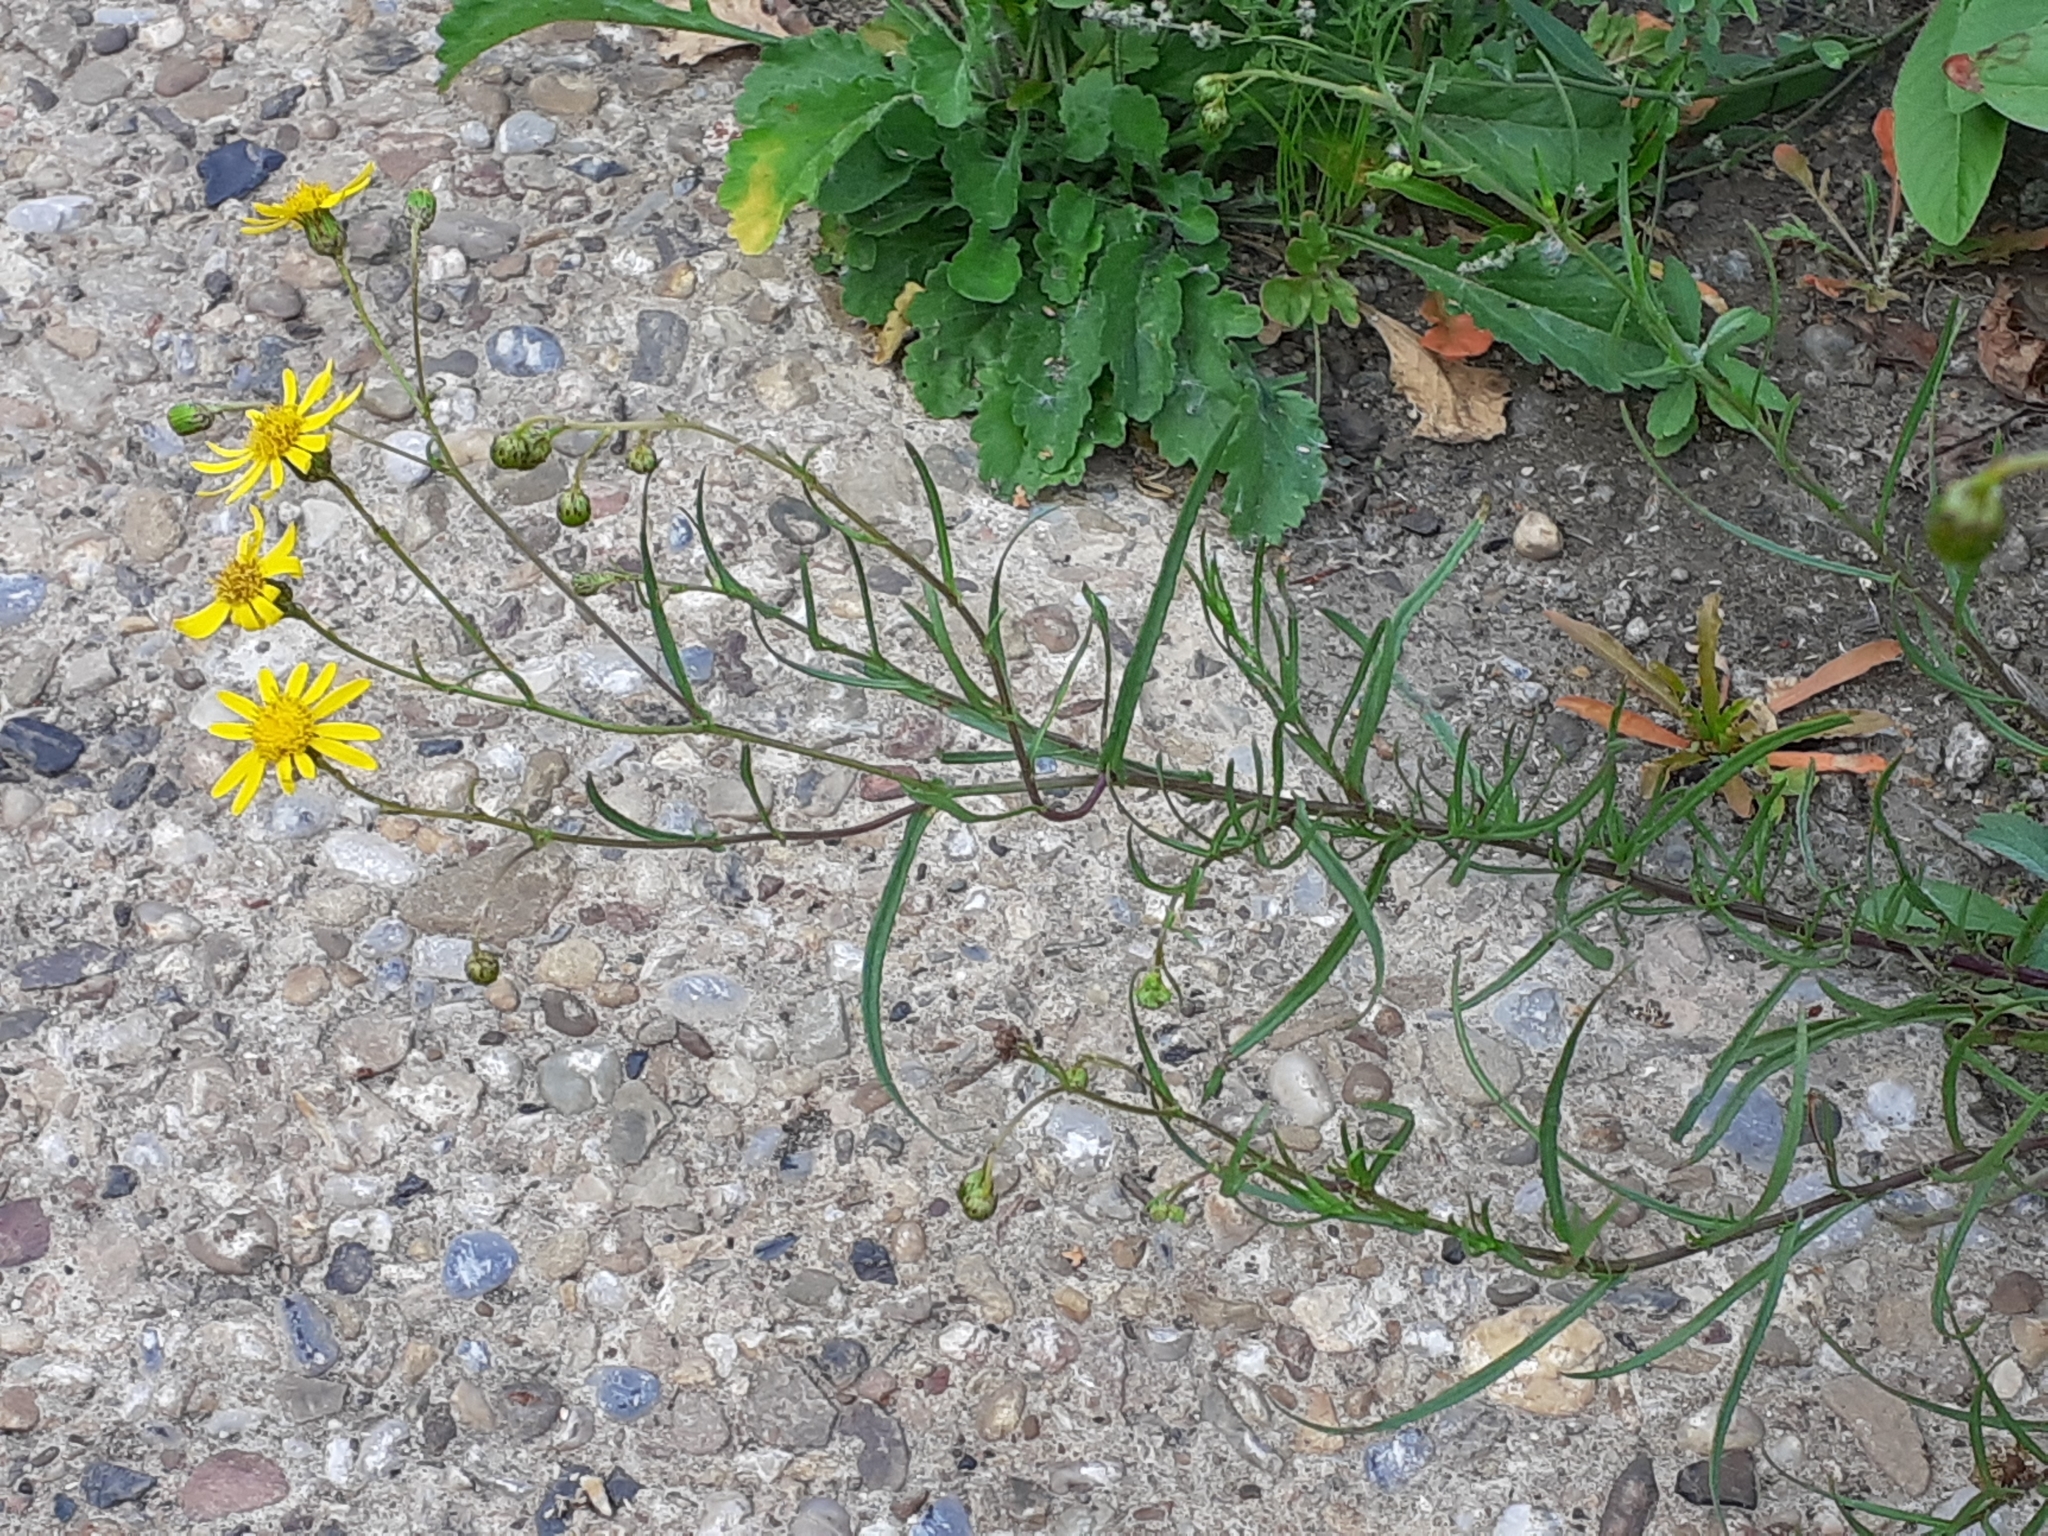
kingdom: Plantae
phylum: Tracheophyta
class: Magnoliopsida
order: Asterales
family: Asteraceae
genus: Senecio
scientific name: Senecio inaequidens
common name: Narrow-leaved ragwort
